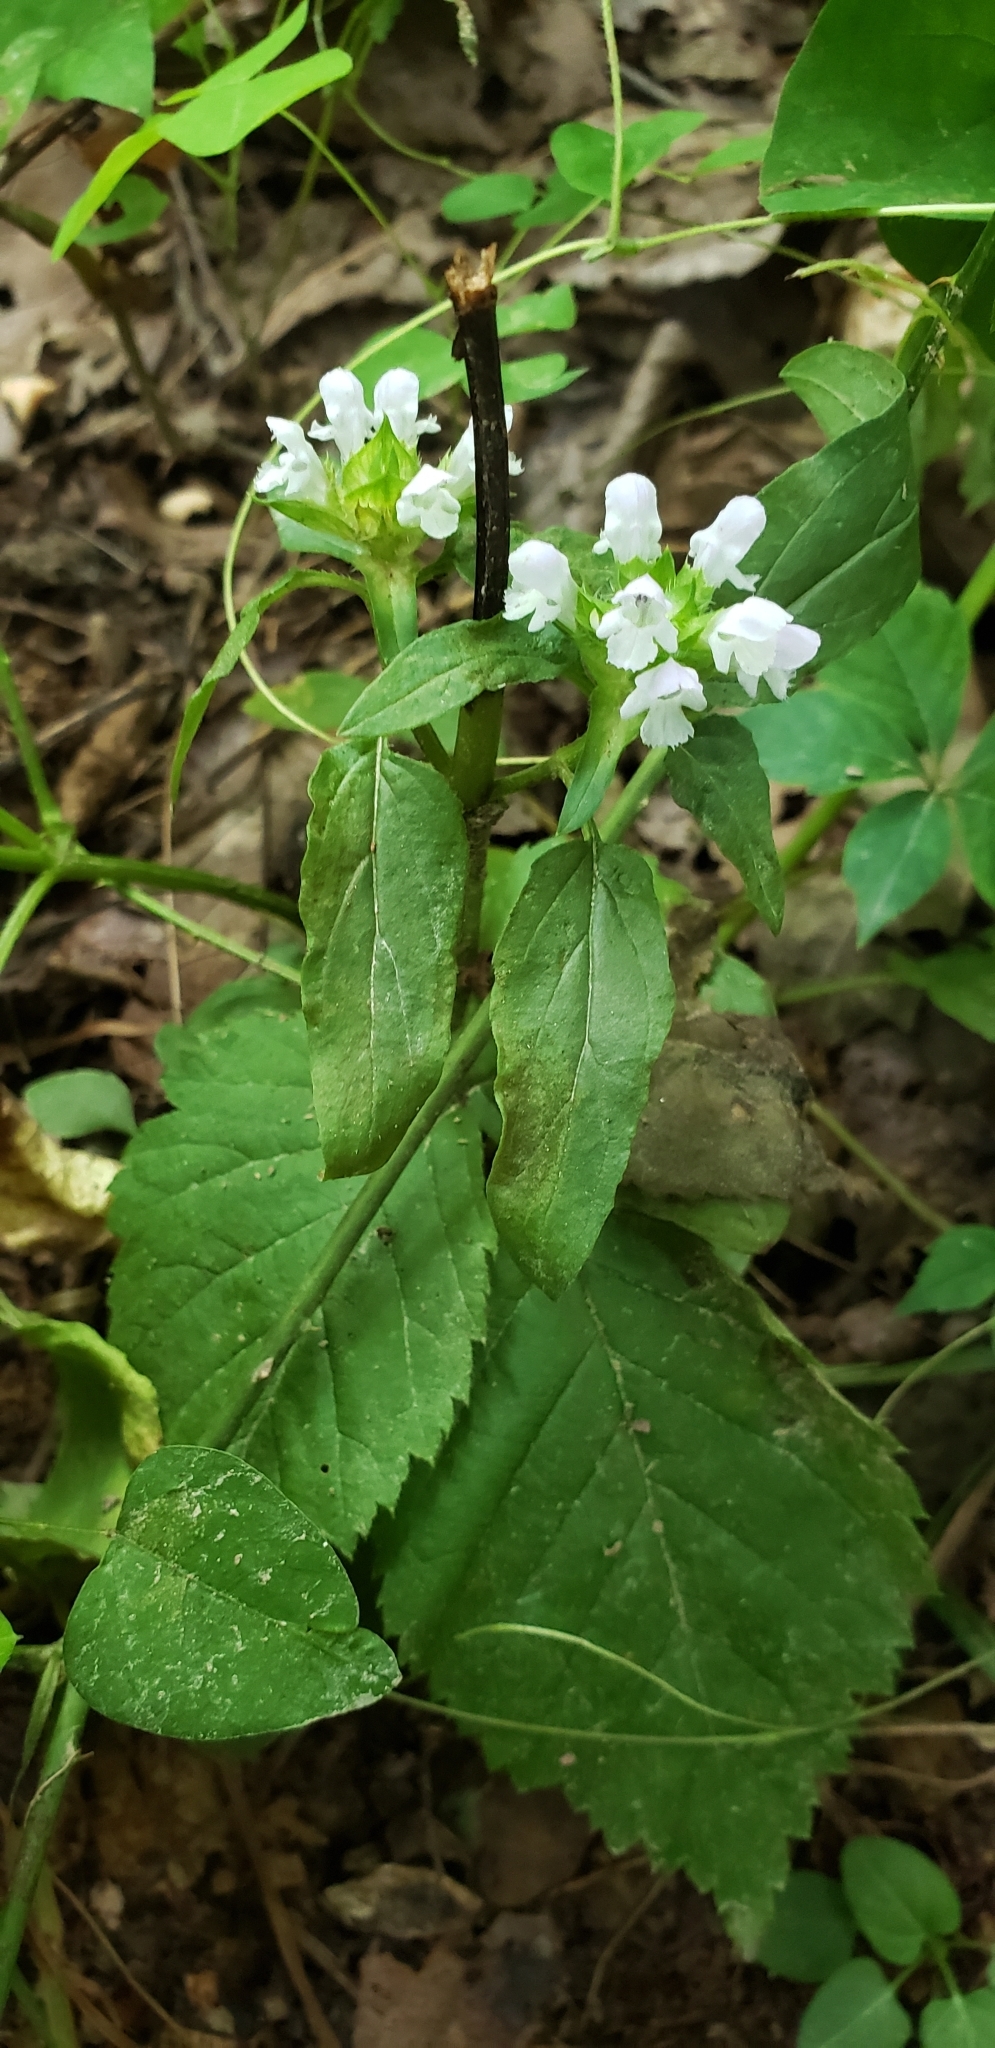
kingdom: Plantae
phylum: Tracheophyta
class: Magnoliopsida
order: Lamiales
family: Lamiaceae
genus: Prunella
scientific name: Prunella vulgaris
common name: Heal-all
